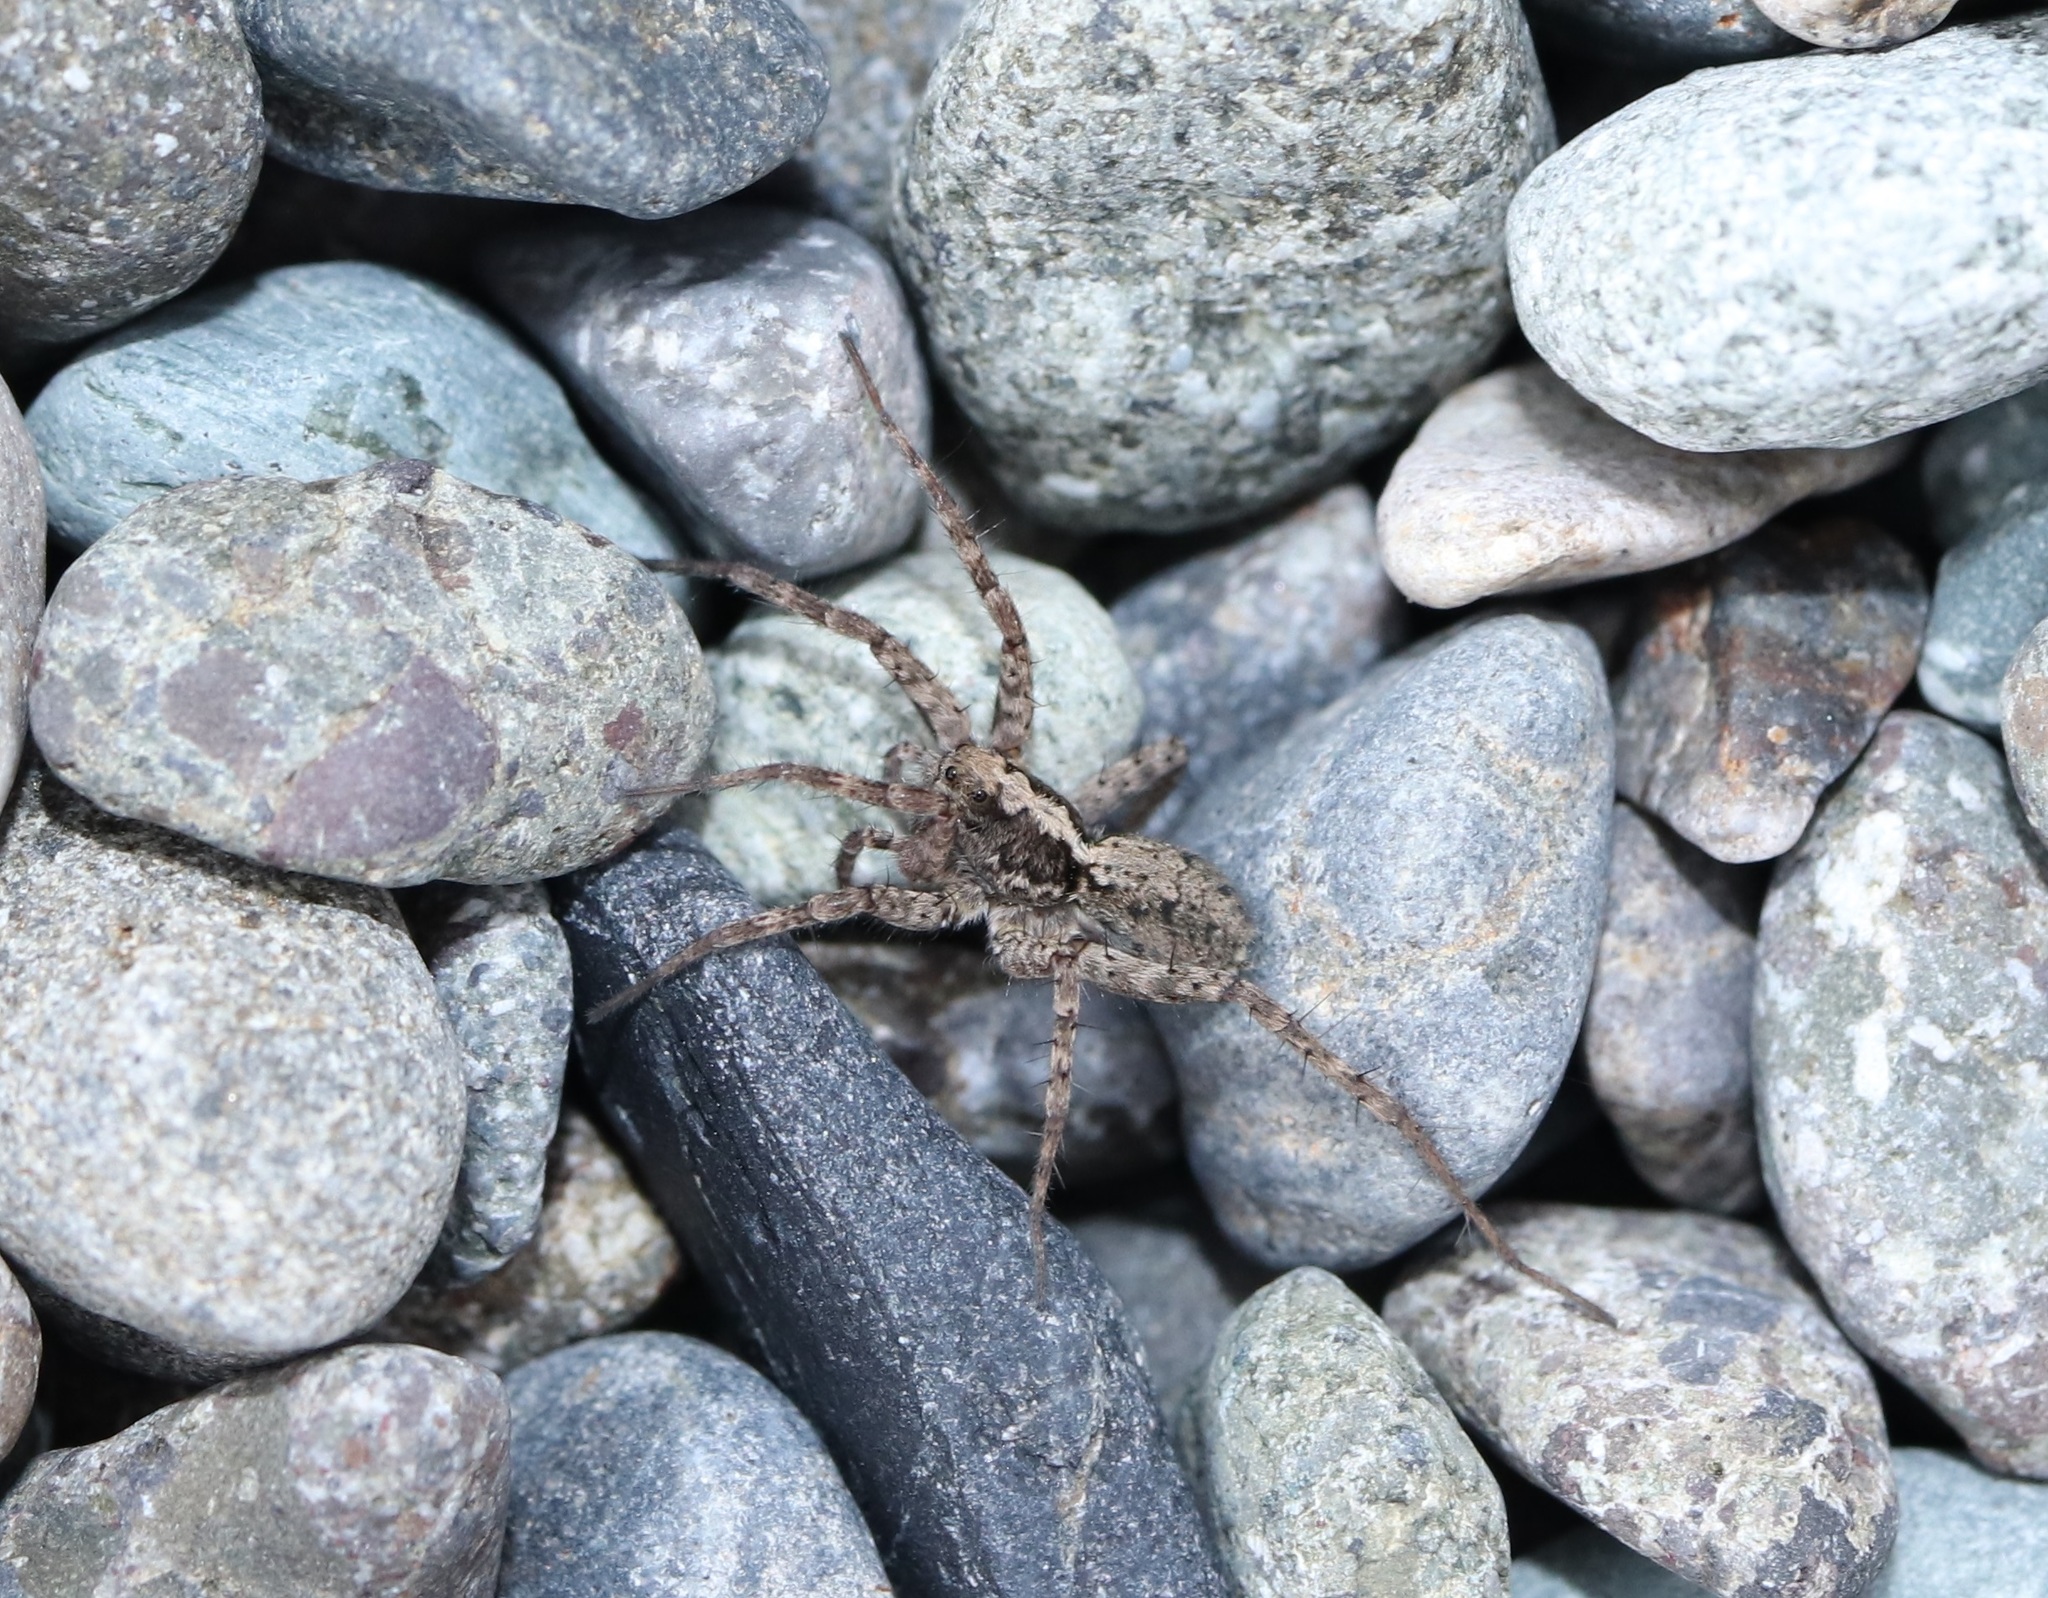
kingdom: Animalia
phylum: Arthropoda
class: Arachnida
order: Araneae
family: Lycosidae
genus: Pardosa
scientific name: Pardosa astrigera
